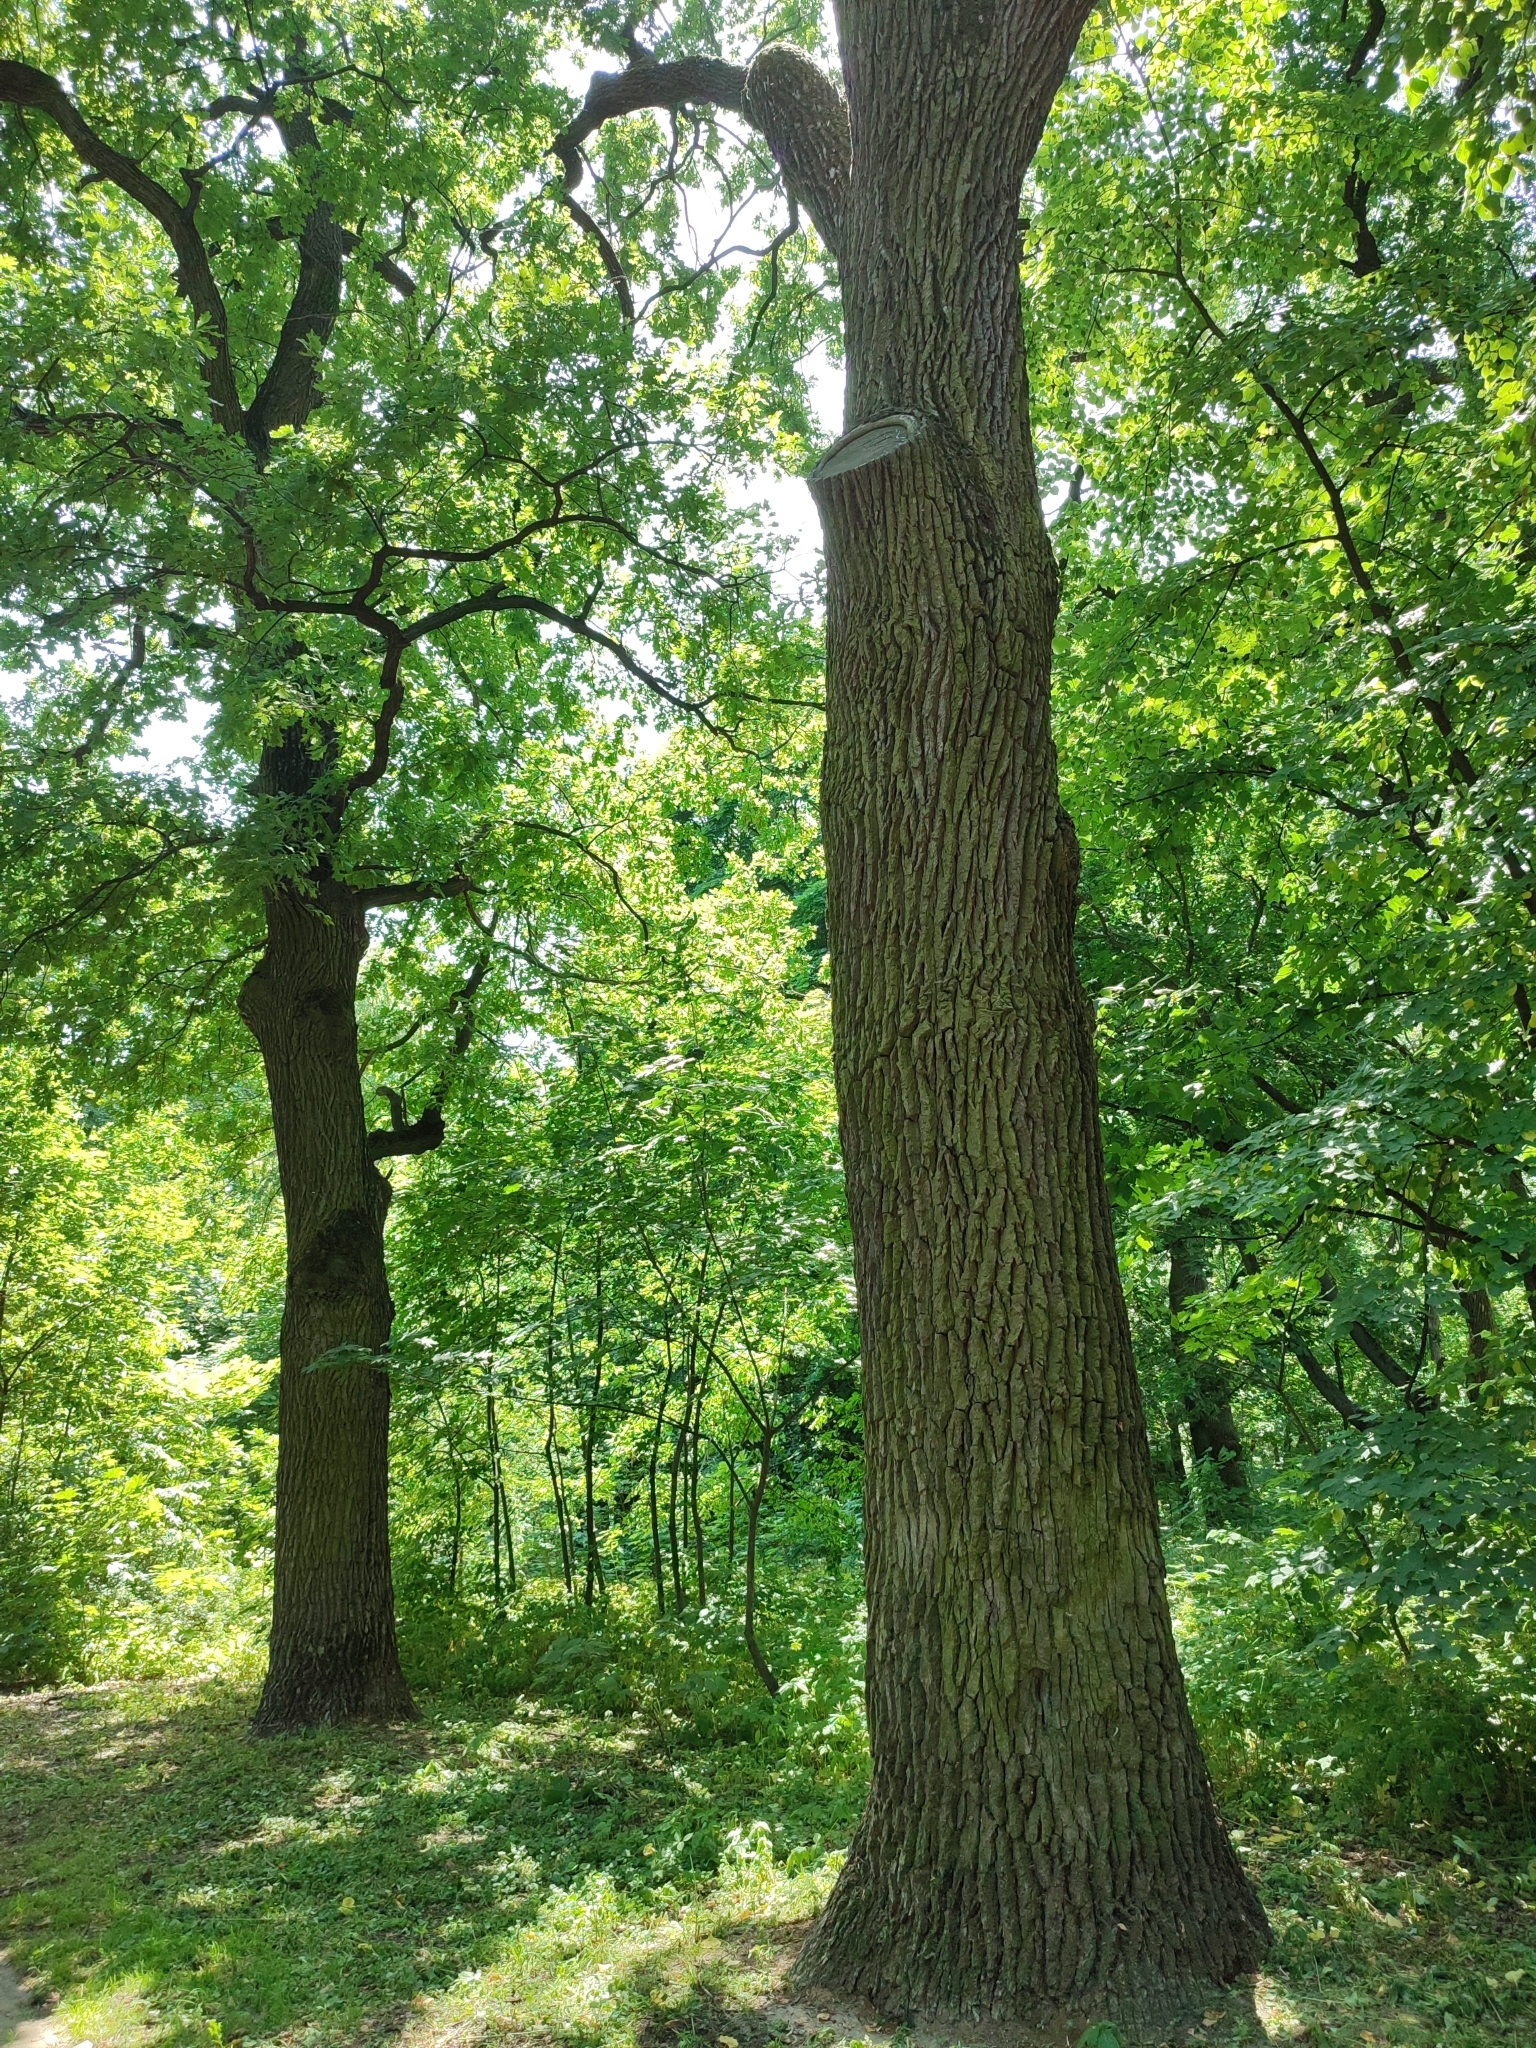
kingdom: Plantae
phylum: Tracheophyta
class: Magnoliopsida
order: Fagales
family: Fagaceae
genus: Quercus
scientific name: Quercus robur
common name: Pedunculate oak
